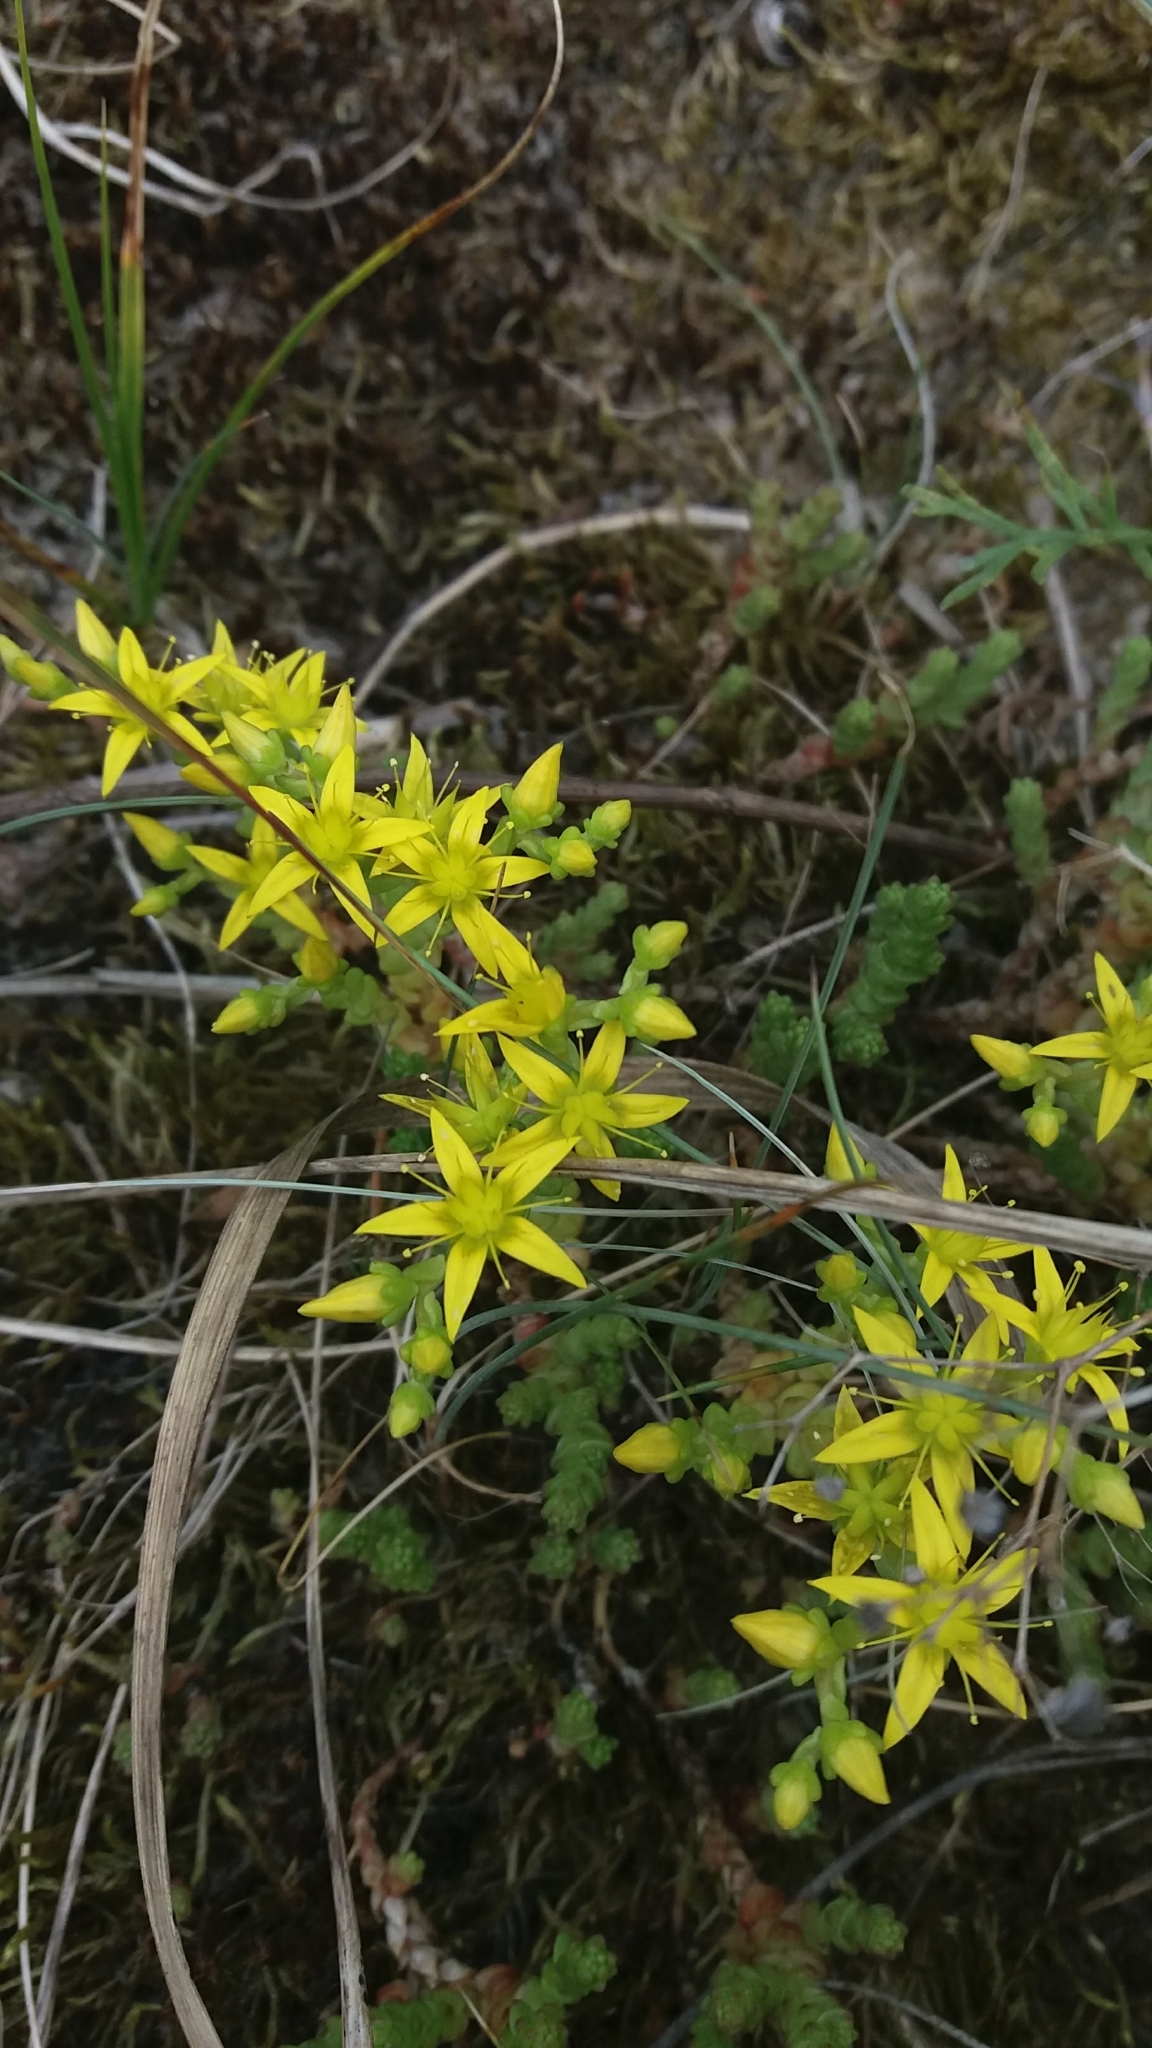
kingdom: Plantae
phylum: Tracheophyta
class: Magnoliopsida
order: Saxifragales
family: Crassulaceae
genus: Sedum
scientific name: Sedum acre
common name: Biting stonecrop
